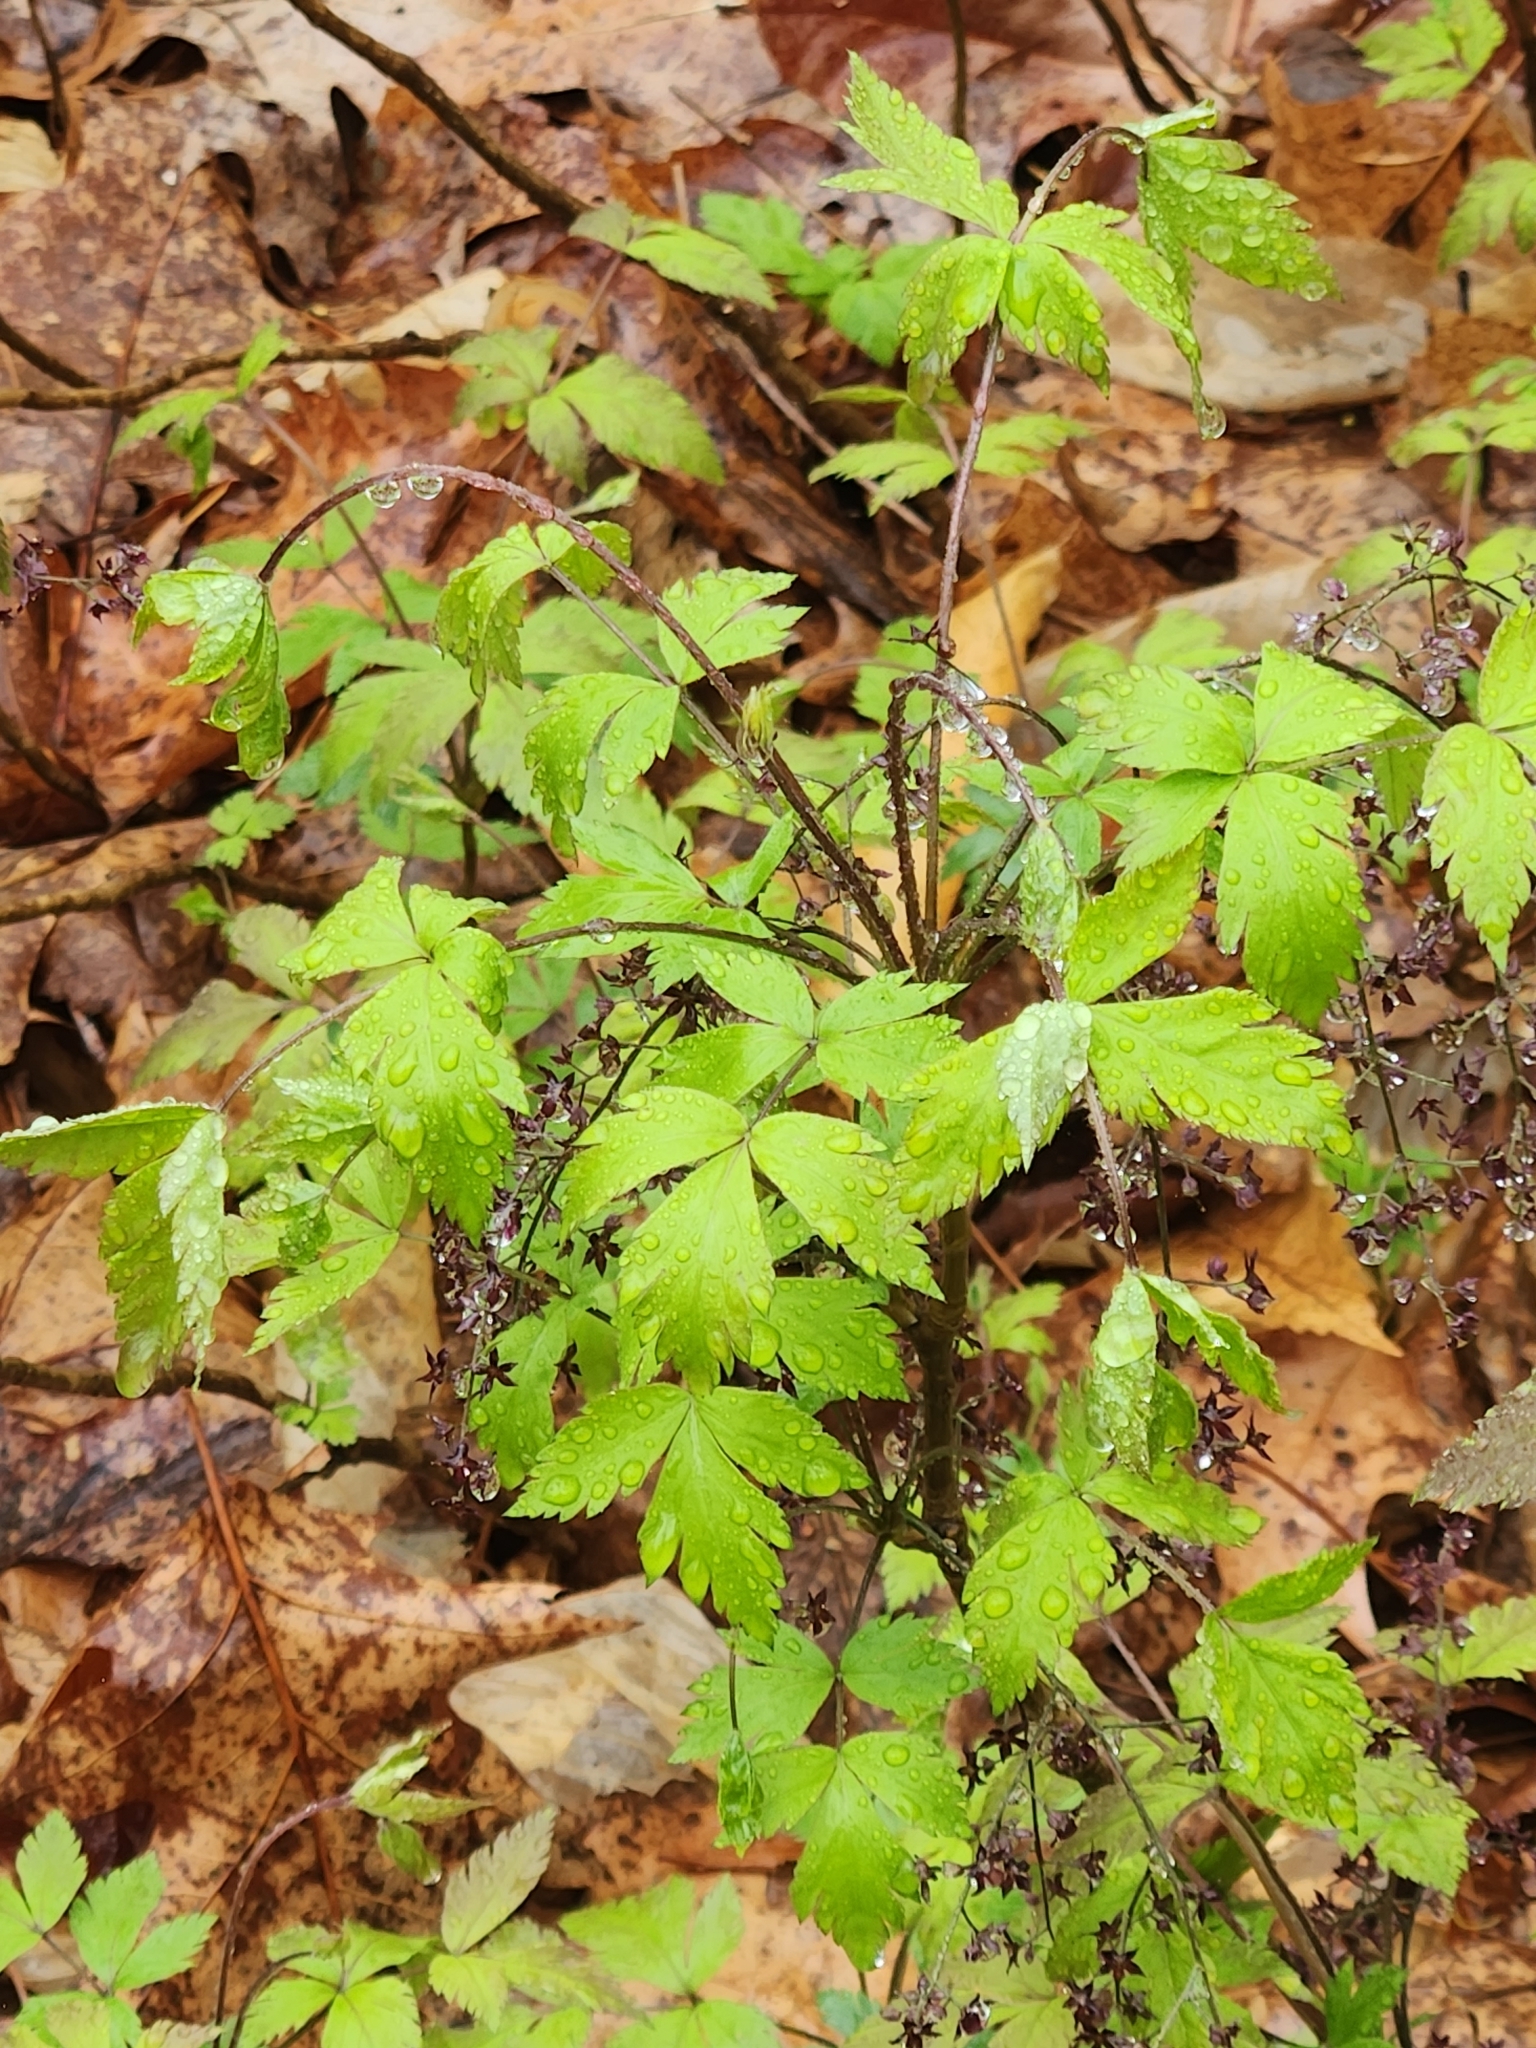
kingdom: Plantae
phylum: Tracheophyta
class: Magnoliopsida
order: Ranunculales
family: Ranunculaceae
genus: Xanthorhiza
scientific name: Xanthorhiza simplicissima
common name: Yellowroot
